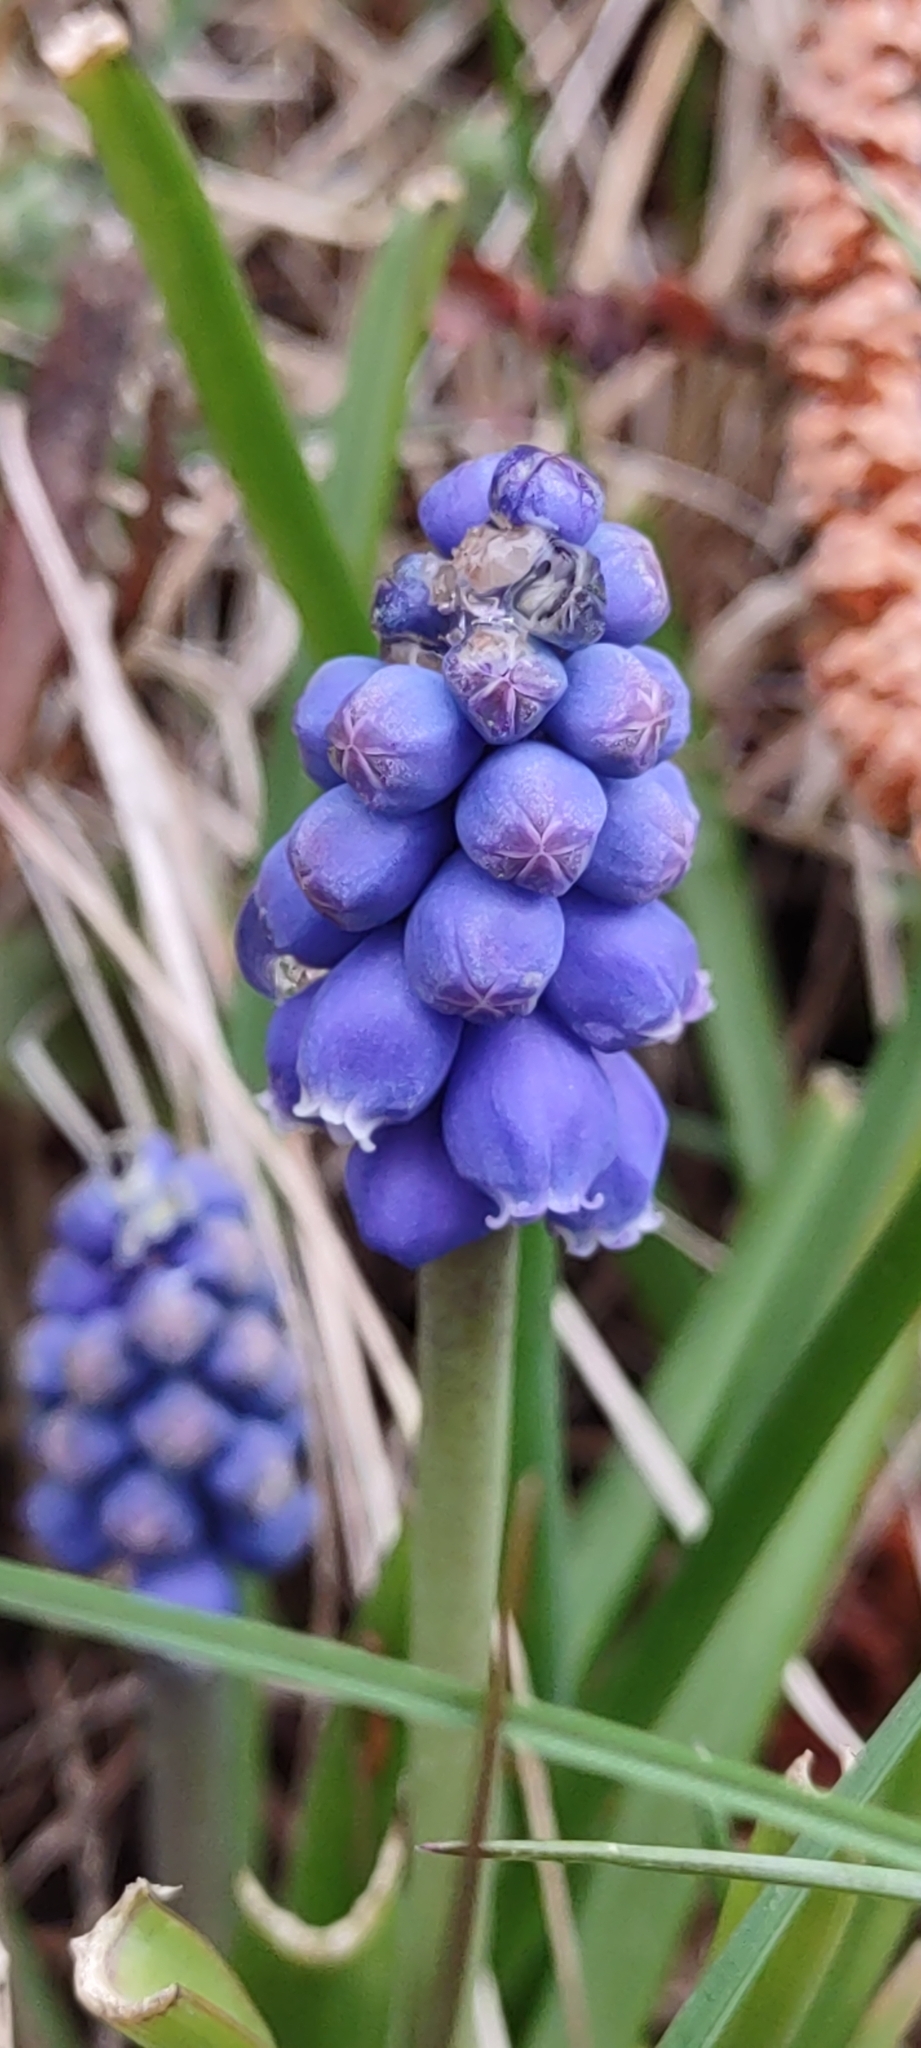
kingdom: Plantae
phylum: Tracheophyta
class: Liliopsida
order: Asparagales
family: Asparagaceae
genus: Muscari
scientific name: Muscari botryoides
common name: Compact grape-hyacinth
